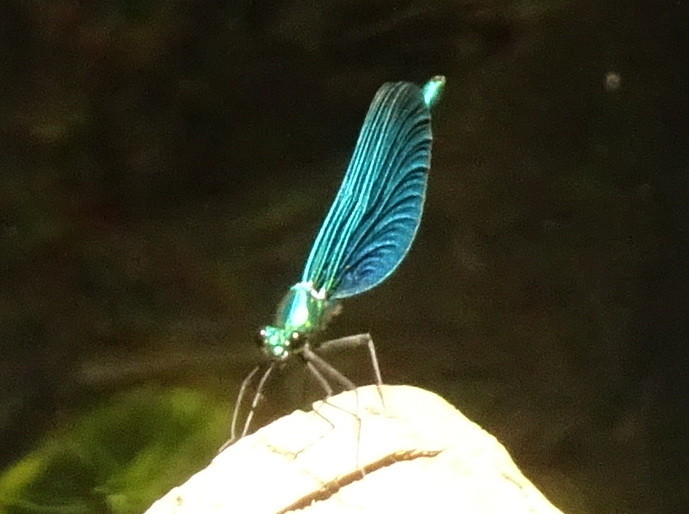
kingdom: Animalia
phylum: Arthropoda
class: Insecta
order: Odonata
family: Calopterygidae
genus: Calopteryx
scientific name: Calopteryx virgo
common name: Beautiful demoiselle
